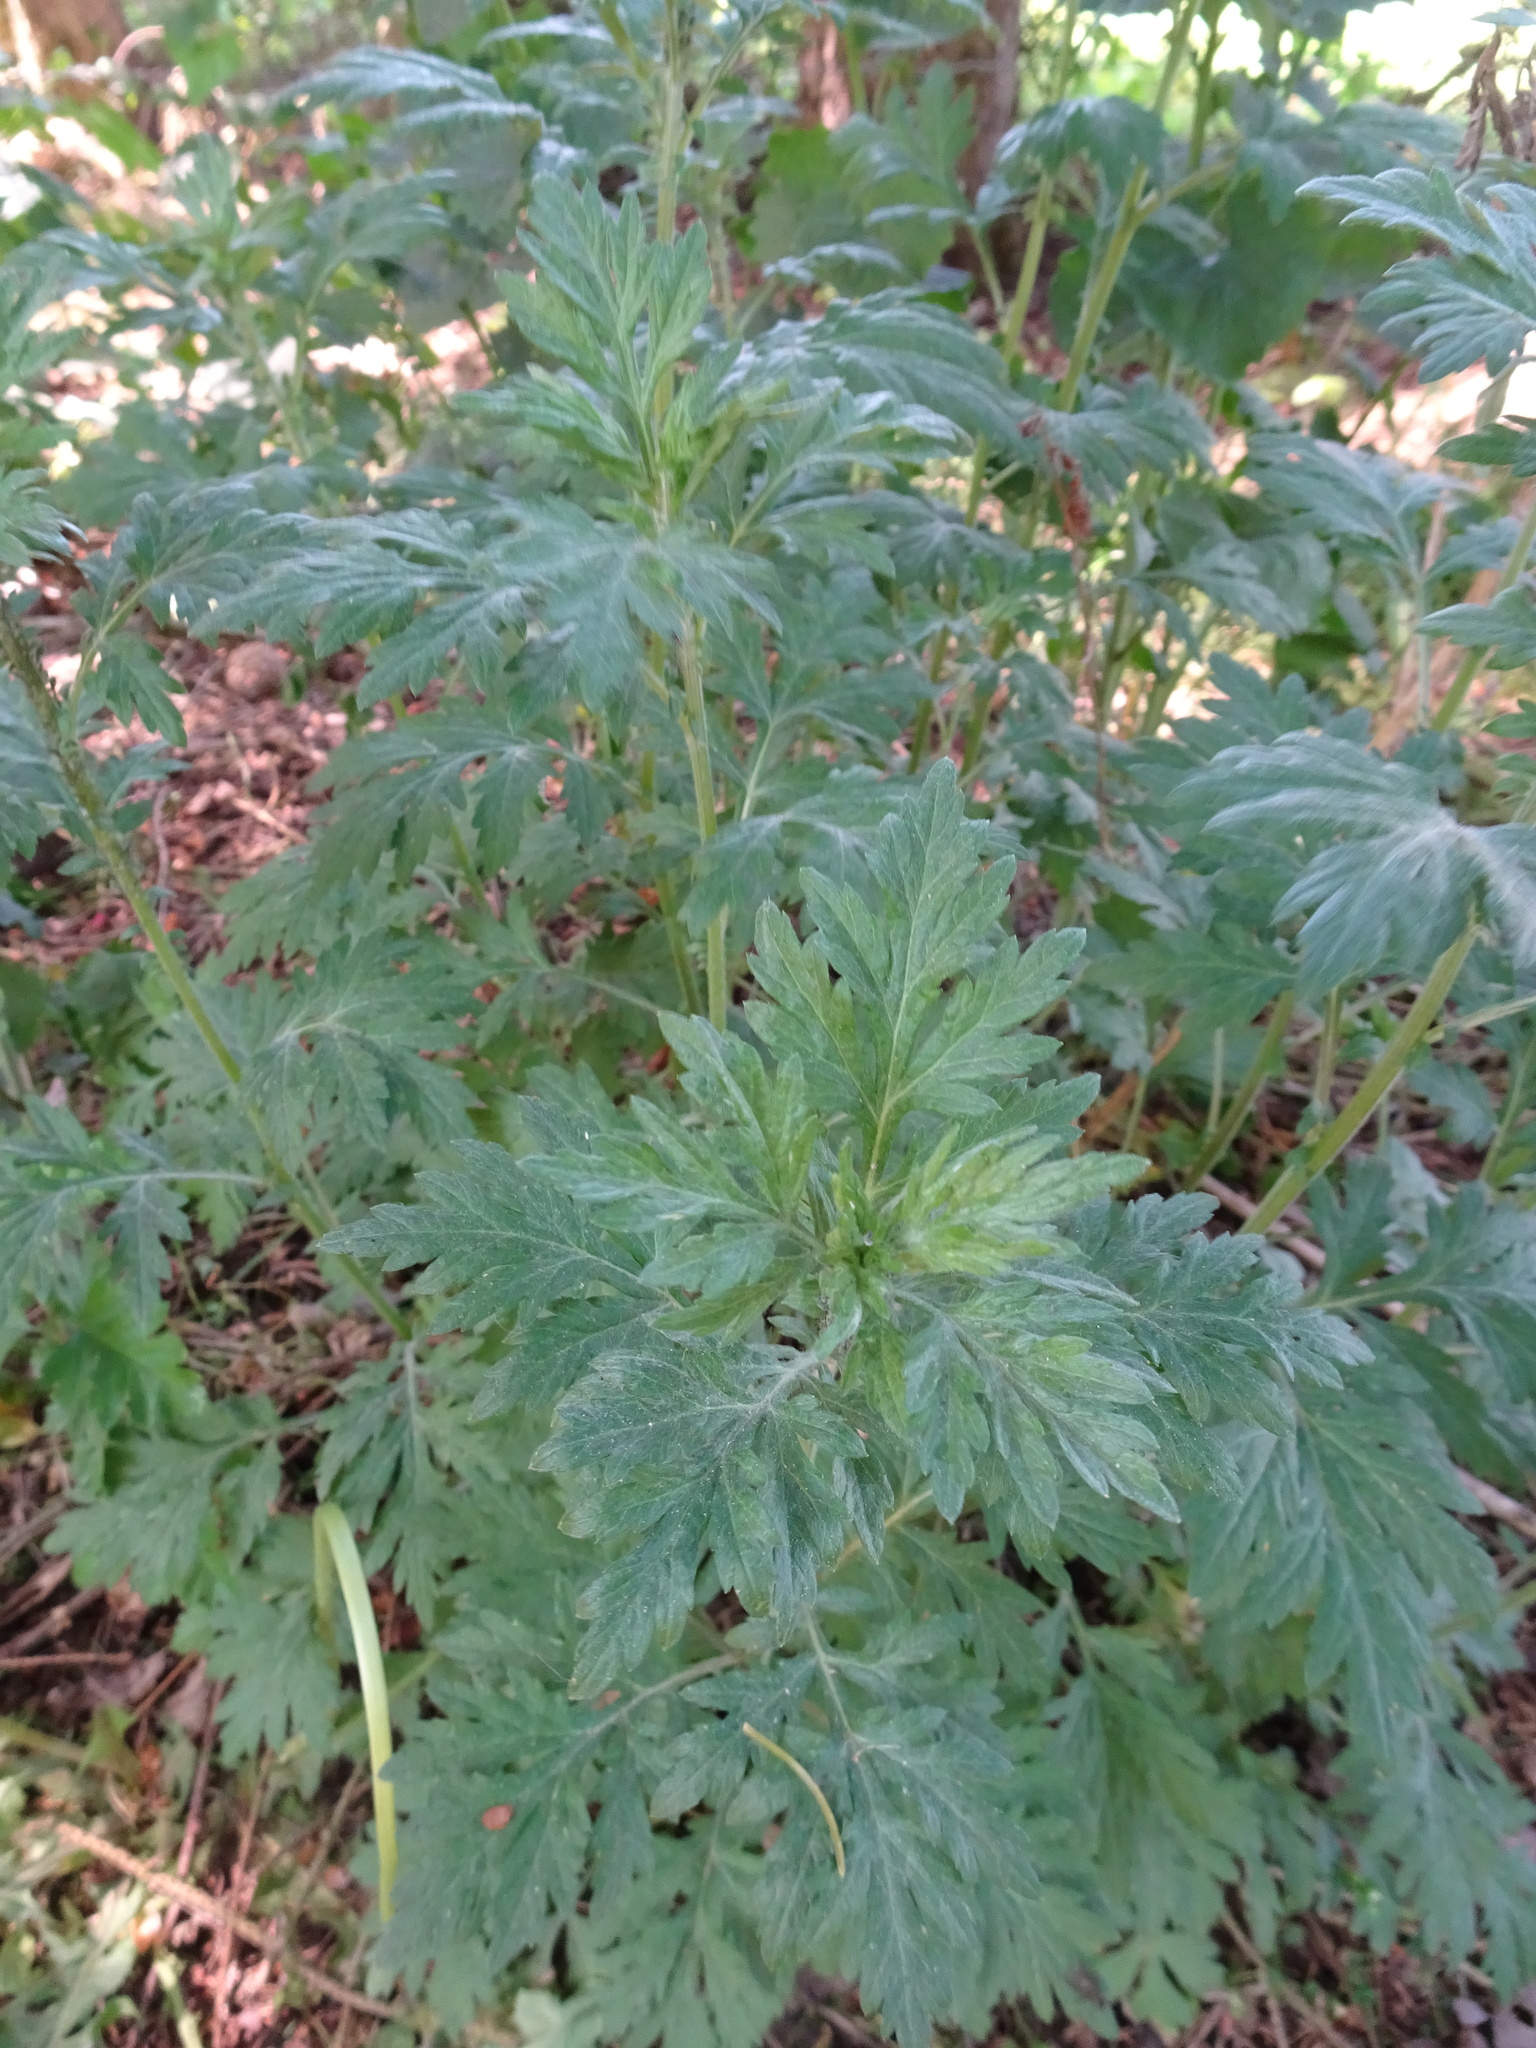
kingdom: Plantae
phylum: Tracheophyta
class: Magnoliopsida
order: Asterales
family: Asteraceae
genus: Artemisia
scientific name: Artemisia vulgaris
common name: Mugwort
